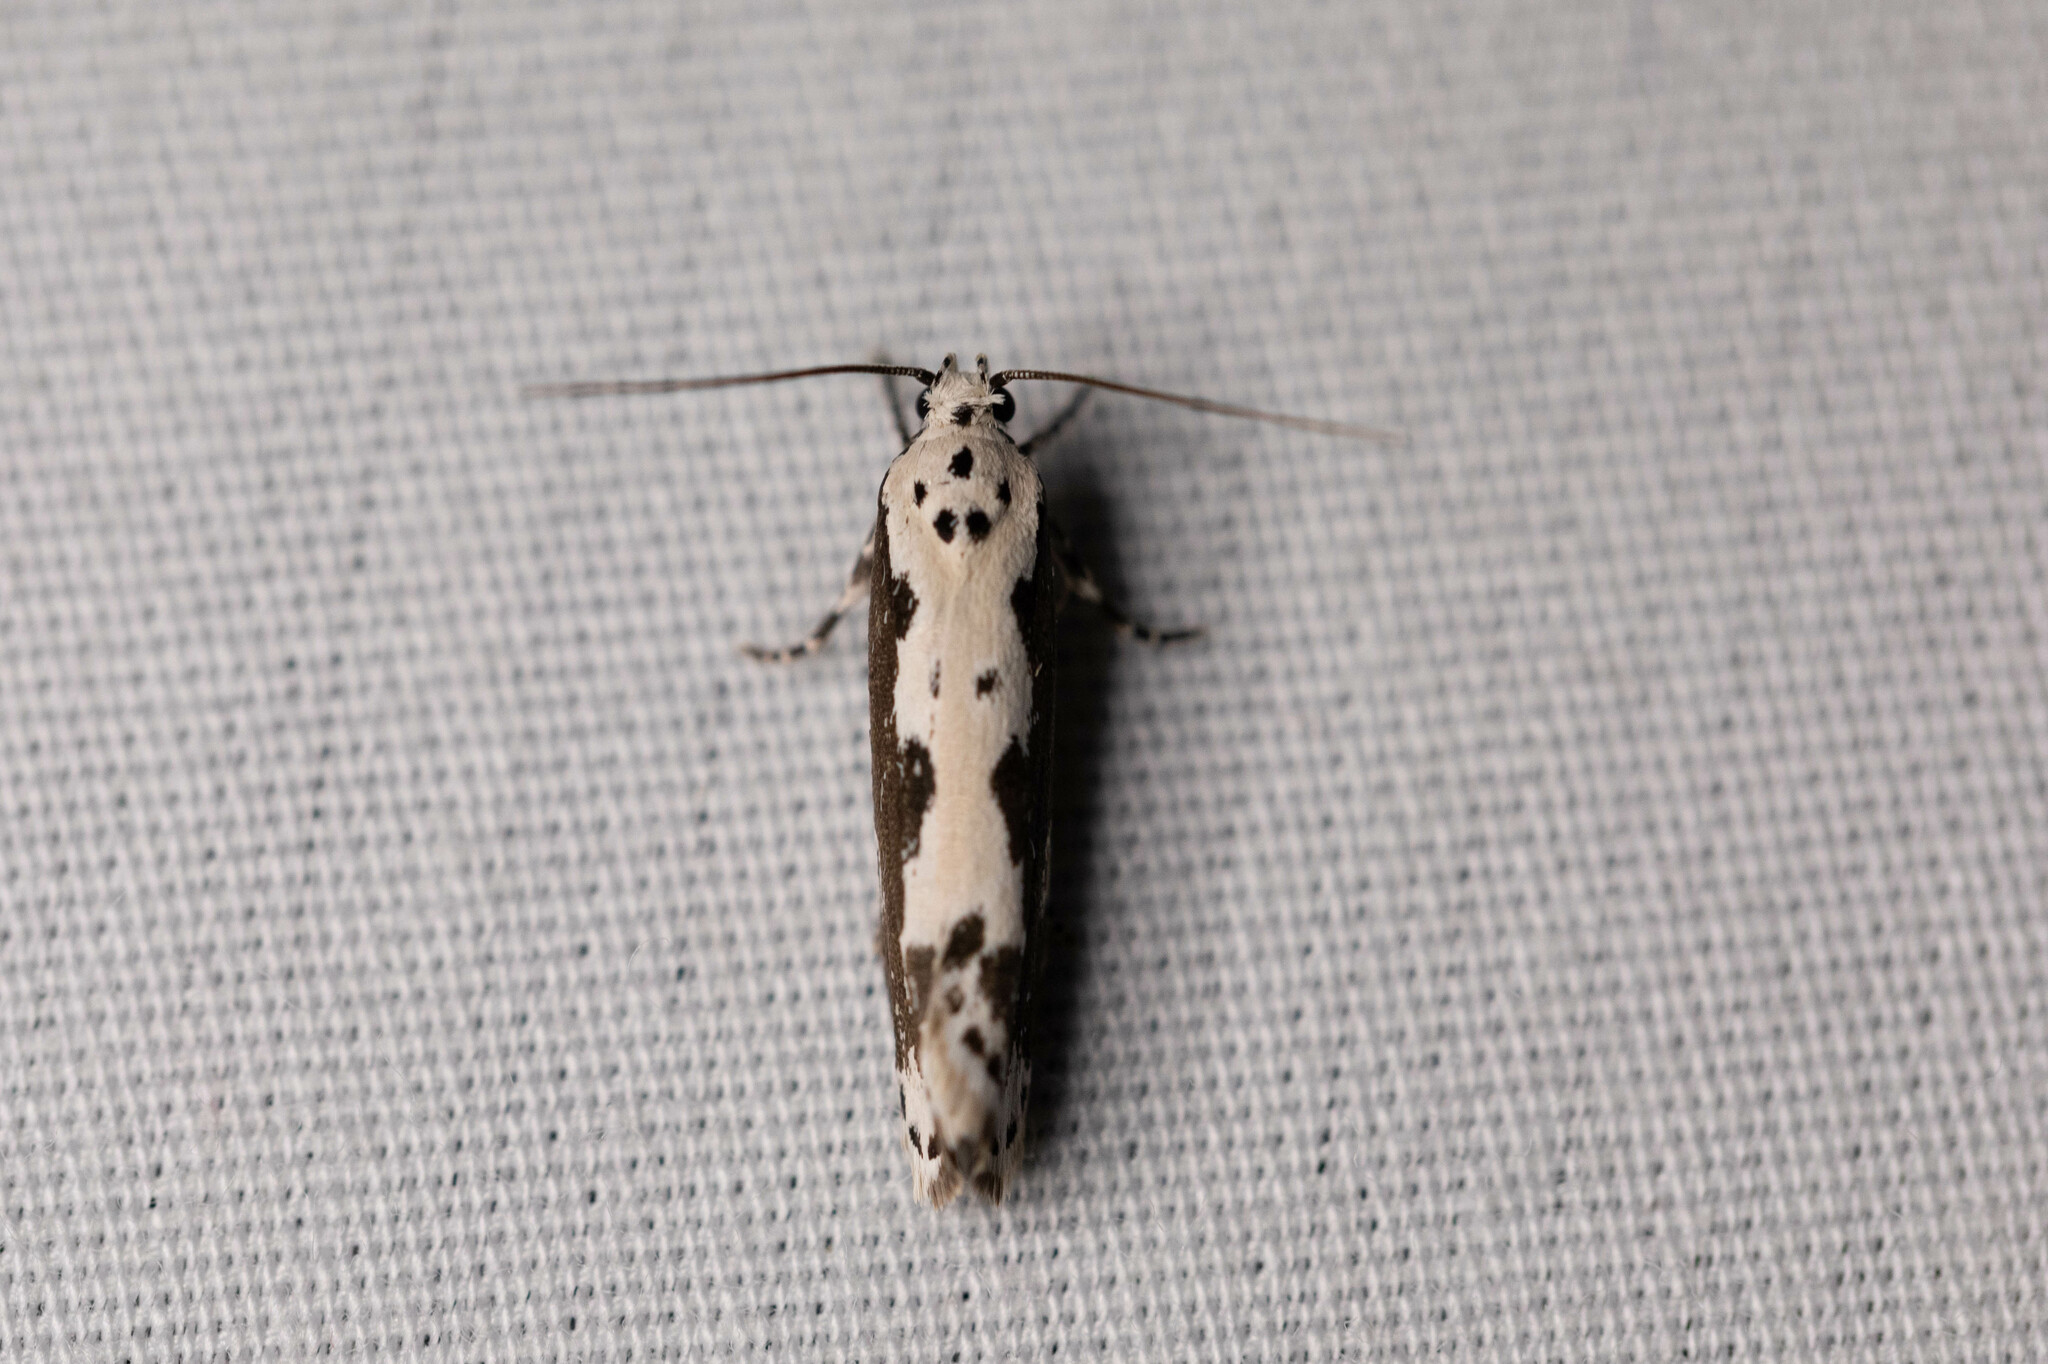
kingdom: Animalia
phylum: Arthropoda
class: Insecta
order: Lepidoptera
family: Ethmiidae
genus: Ethmia
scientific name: Ethmia marmorea
